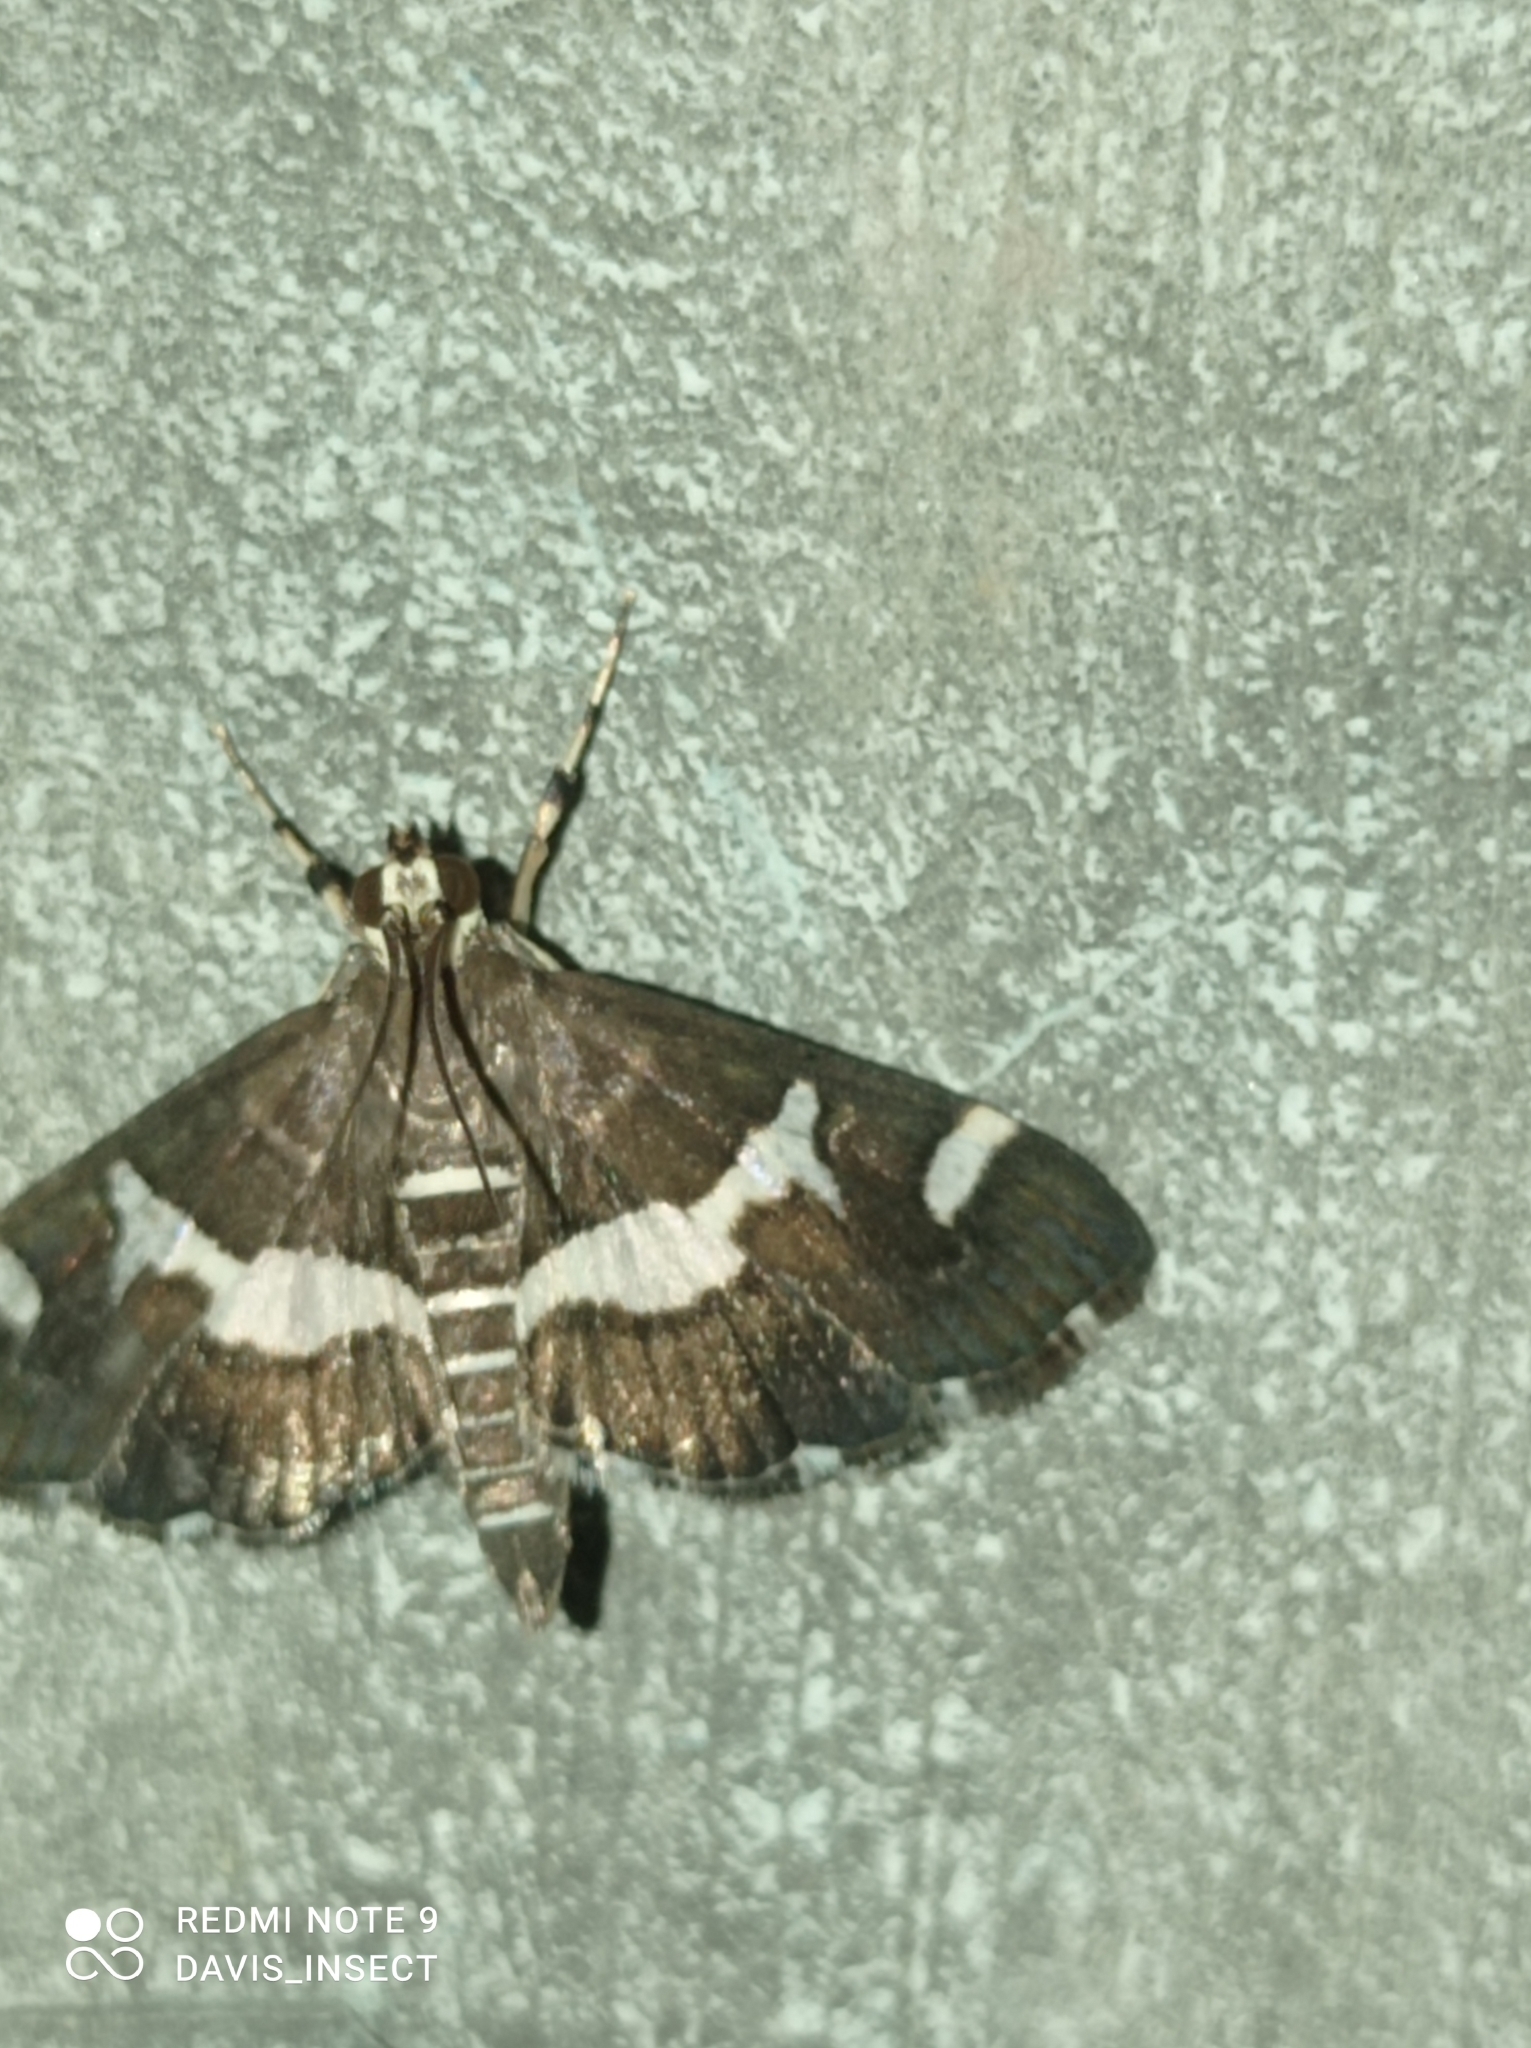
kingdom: Animalia
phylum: Arthropoda
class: Insecta
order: Lepidoptera
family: Crambidae
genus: Spoladea
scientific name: Spoladea recurvalis
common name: Beet webworm moth
